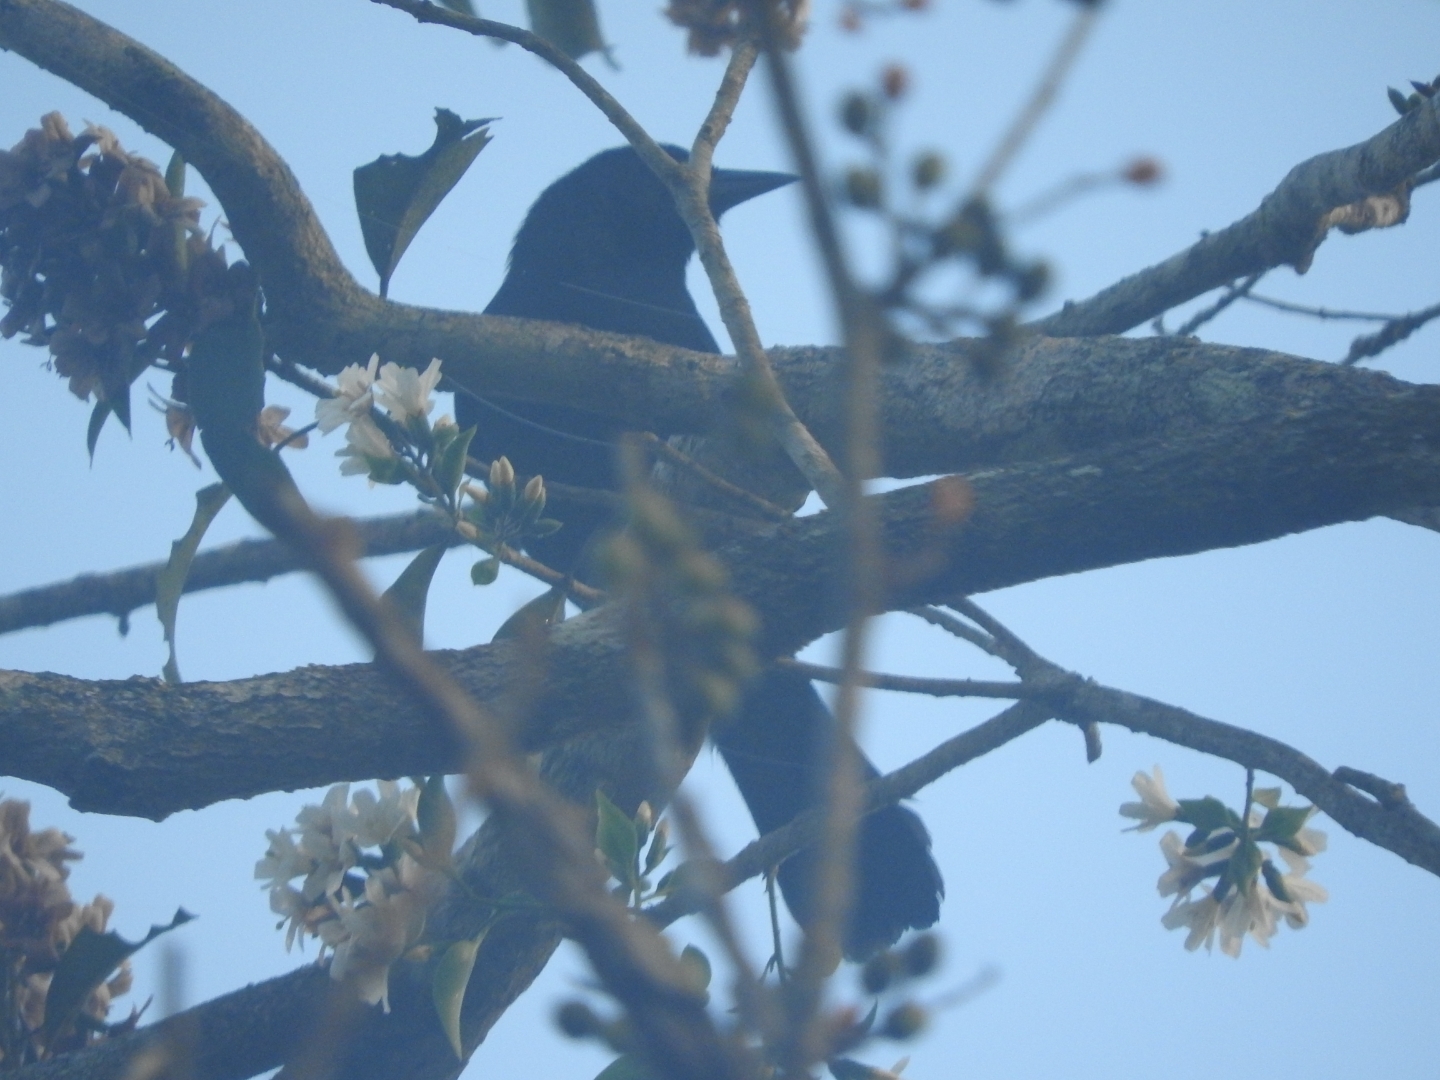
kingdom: Animalia
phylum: Chordata
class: Aves
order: Passeriformes
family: Icteridae
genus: Dives
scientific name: Dives dives
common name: Melodious blackbird
